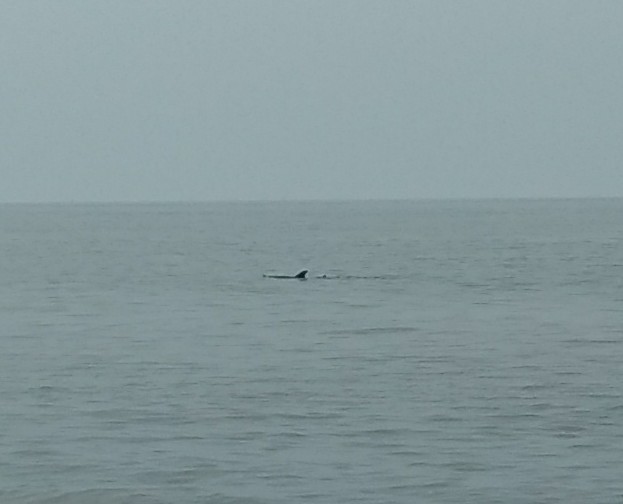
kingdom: Animalia
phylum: Chordata
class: Mammalia
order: Cetacea
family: Delphinidae
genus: Tursiops
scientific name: Tursiops truncatus
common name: Bottlenose dolphin
